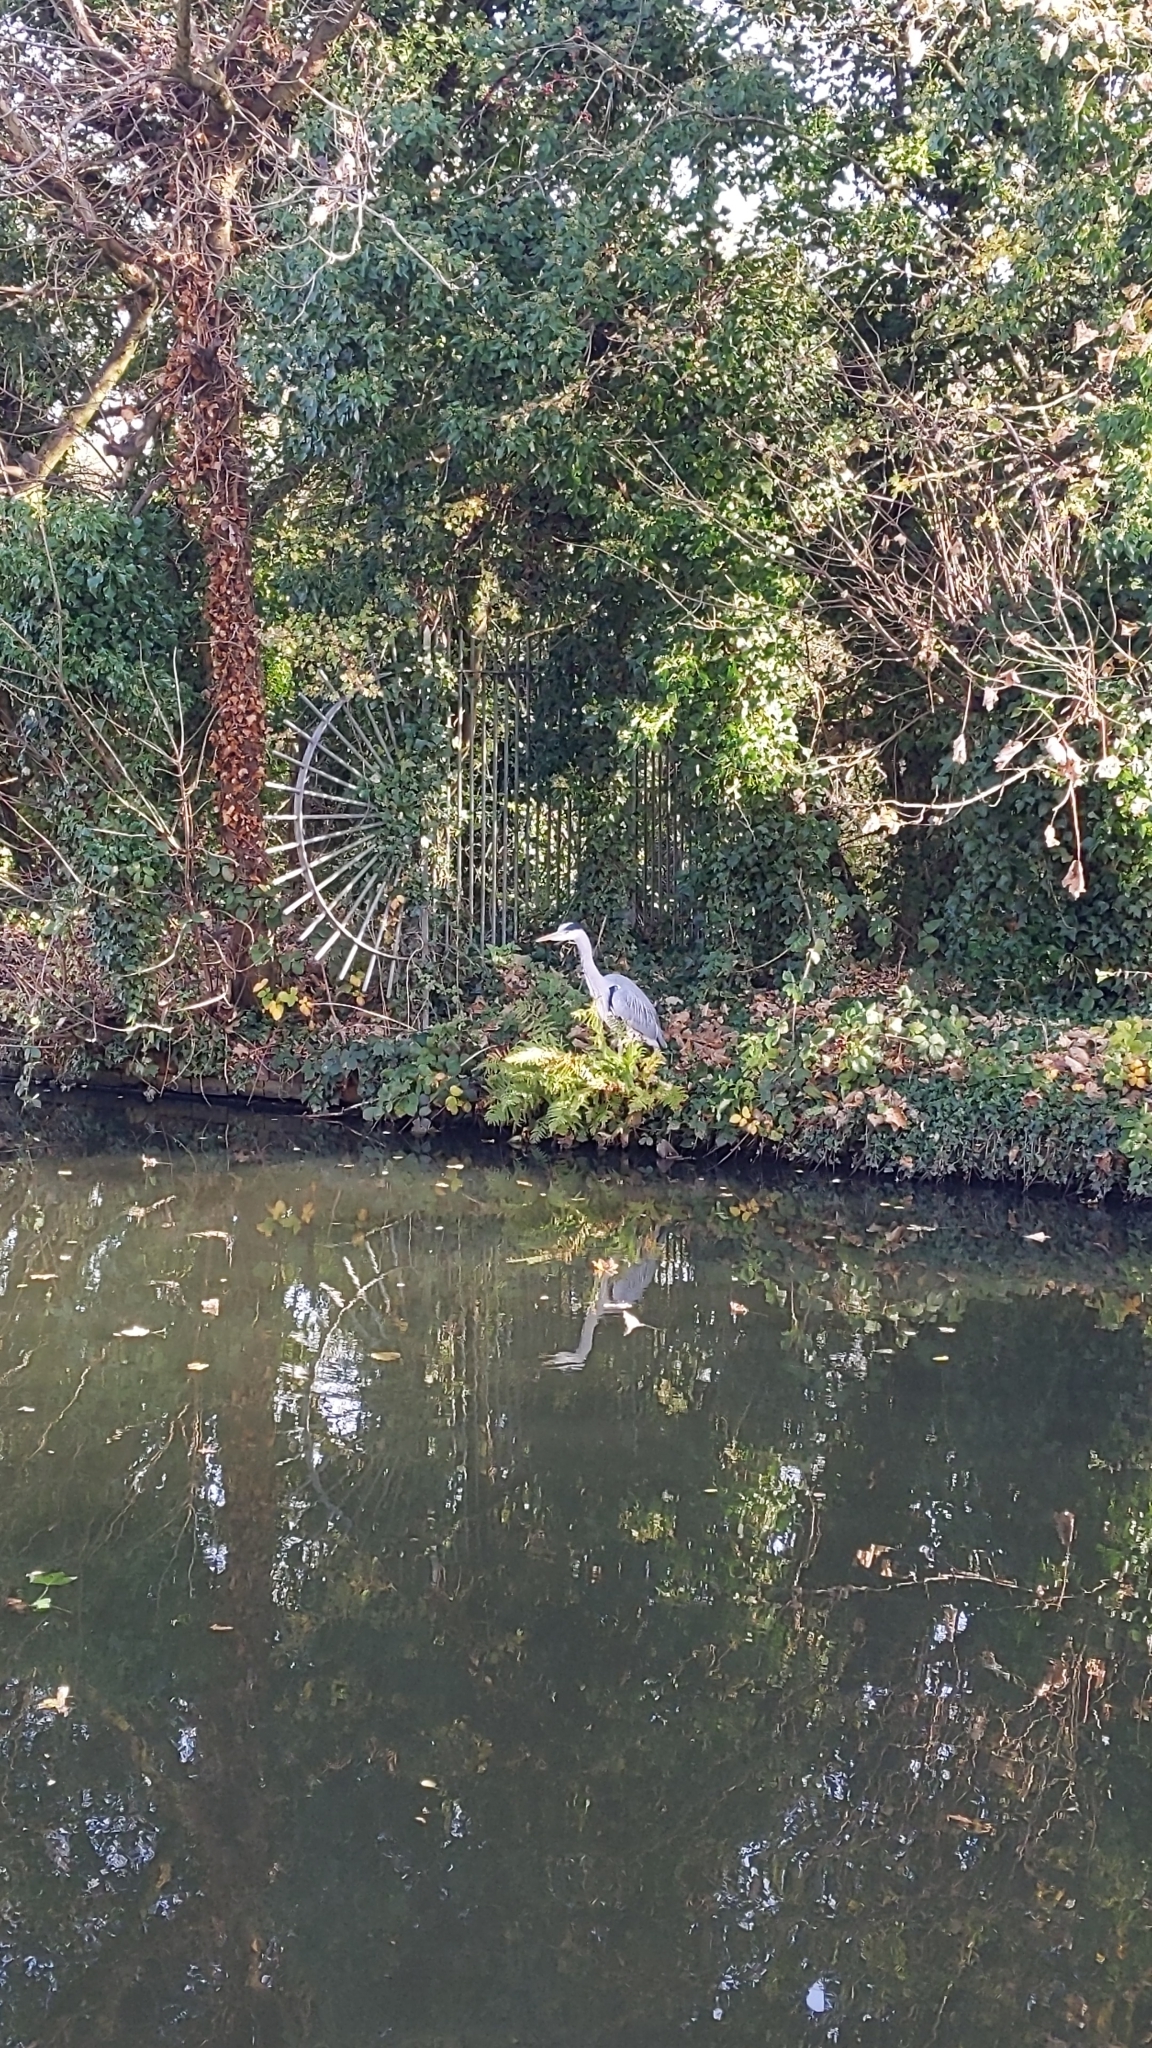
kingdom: Animalia
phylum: Chordata
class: Aves
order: Pelecaniformes
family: Ardeidae
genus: Ardea
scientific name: Ardea cinerea
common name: Grey heron
